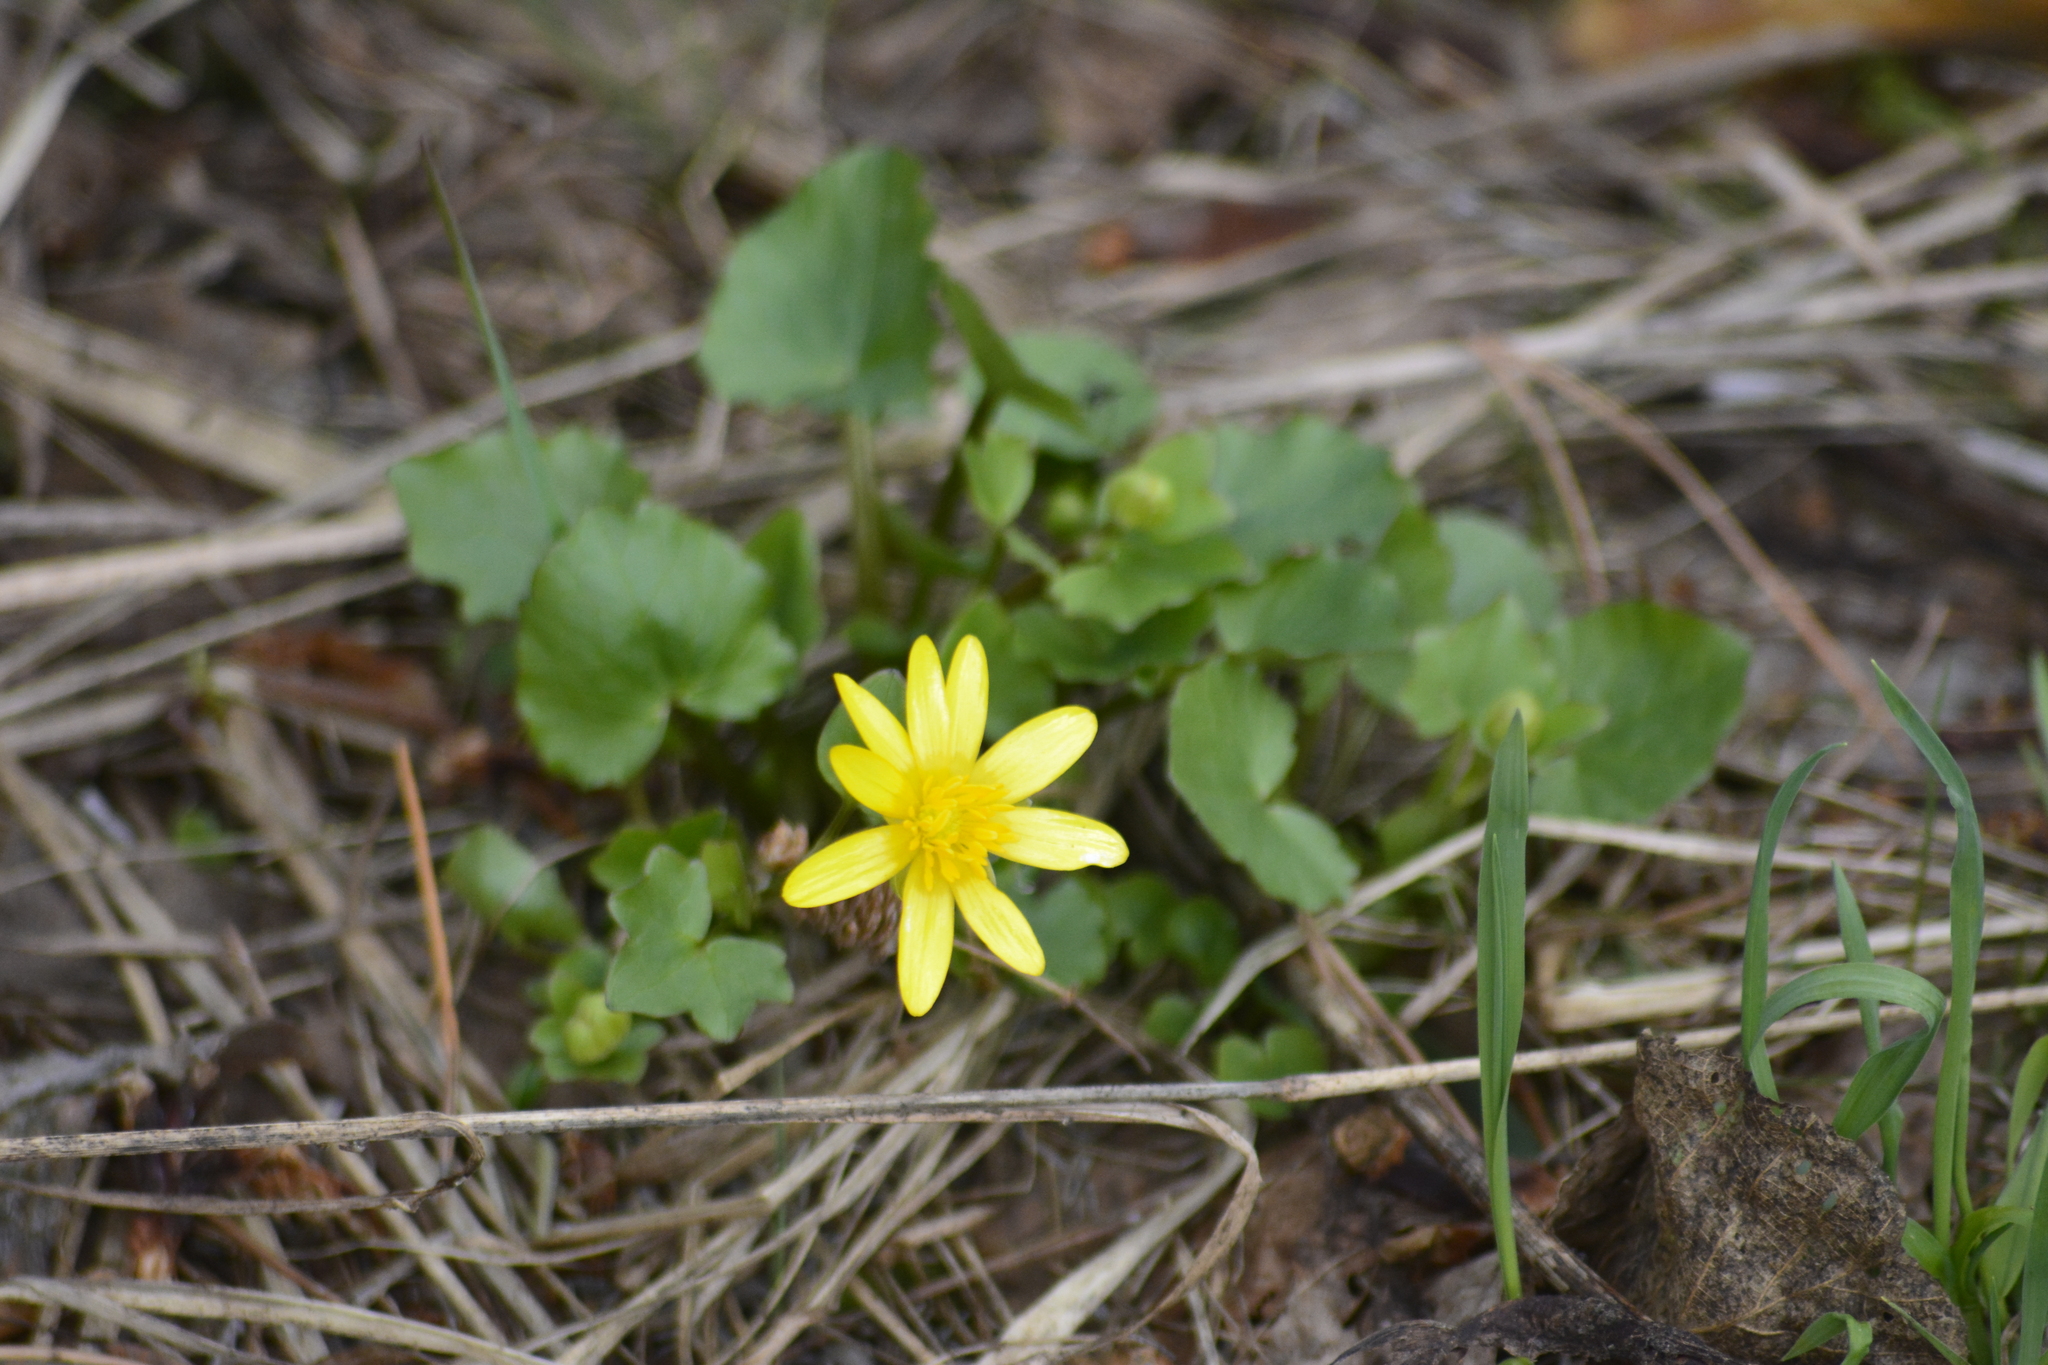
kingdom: Plantae
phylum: Tracheophyta
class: Magnoliopsida
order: Ranunculales
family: Ranunculaceae
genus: Ficaria
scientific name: Ficaria verna
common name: Lesser celandine
